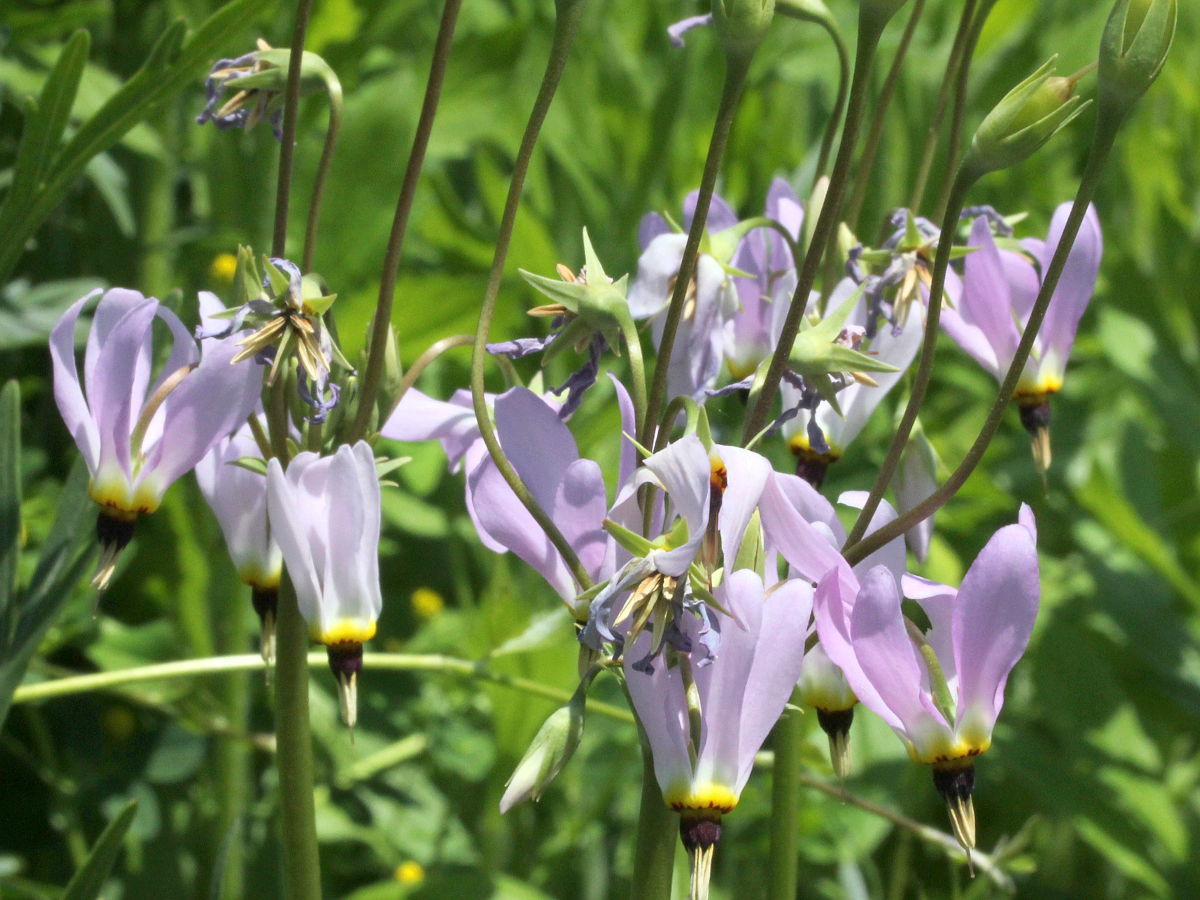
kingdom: Plantae
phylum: Tracheophyta
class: Magnoliopsida
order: Ericales
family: Primulaceae
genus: Dodecatheon
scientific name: Dodecatheon meadia
